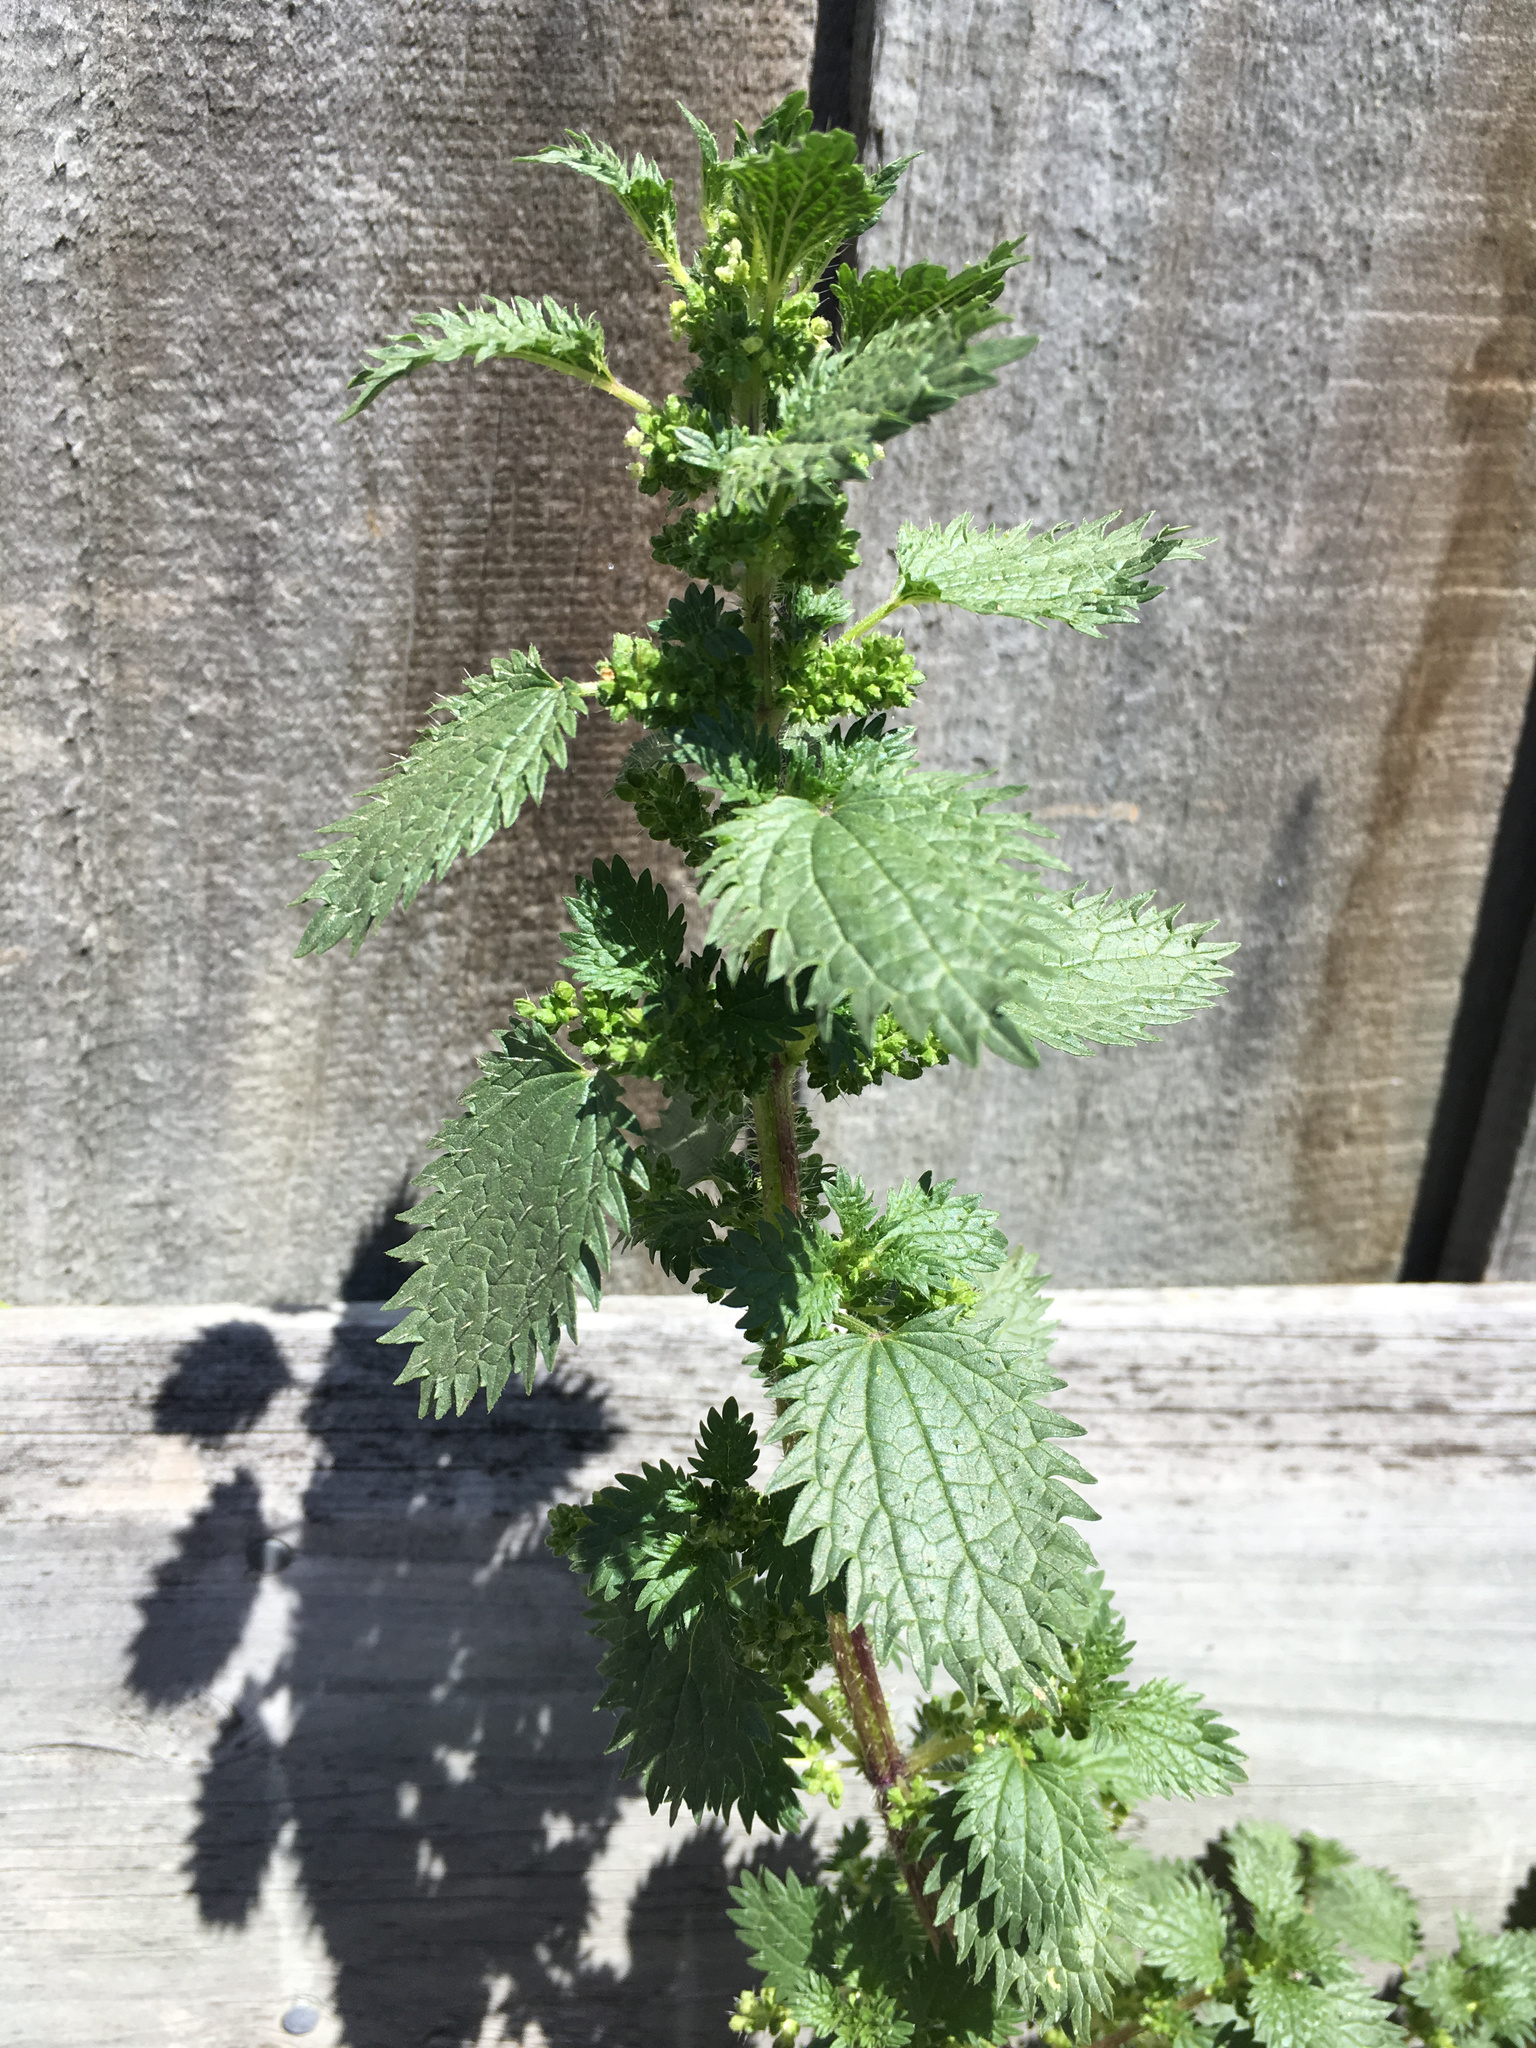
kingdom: Plantae
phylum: Tracheophyta
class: Magnoliopsida
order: Rosales
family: Urticaceae
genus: Urtica
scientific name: Urtica urens
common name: Dwarf nettle
